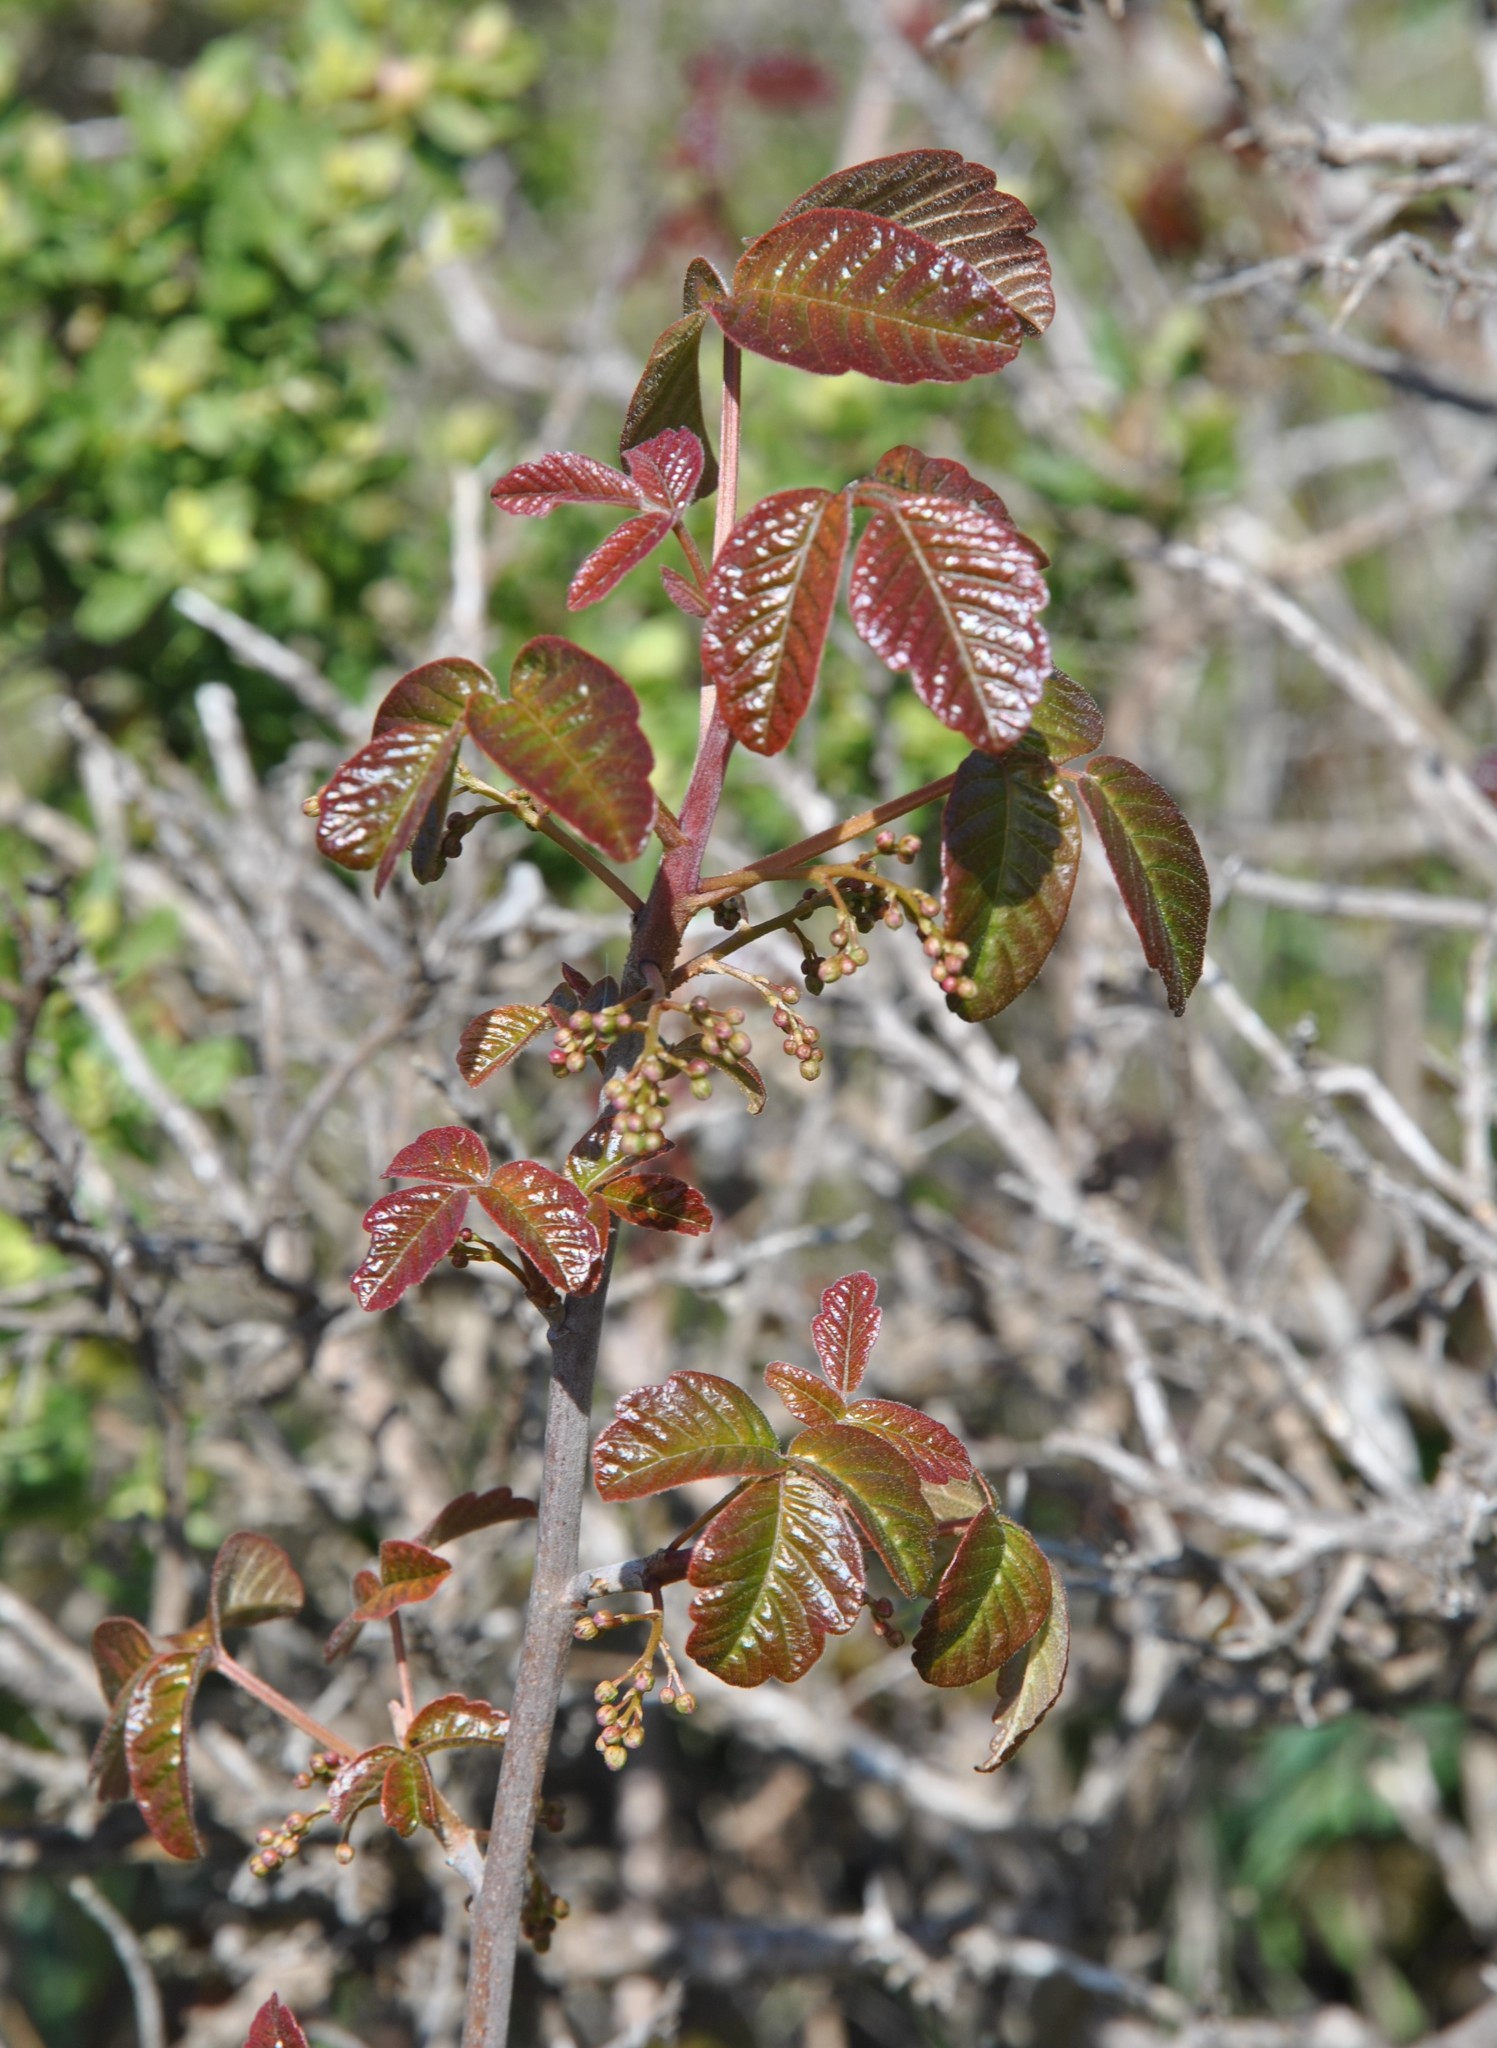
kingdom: Plantae
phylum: Tracheophyta
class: Magnoliopsida
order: Sapindales
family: Anacardiaceae
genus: Toxicodendron
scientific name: Toxicodendron diversilobum
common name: Pacific poison-oak
